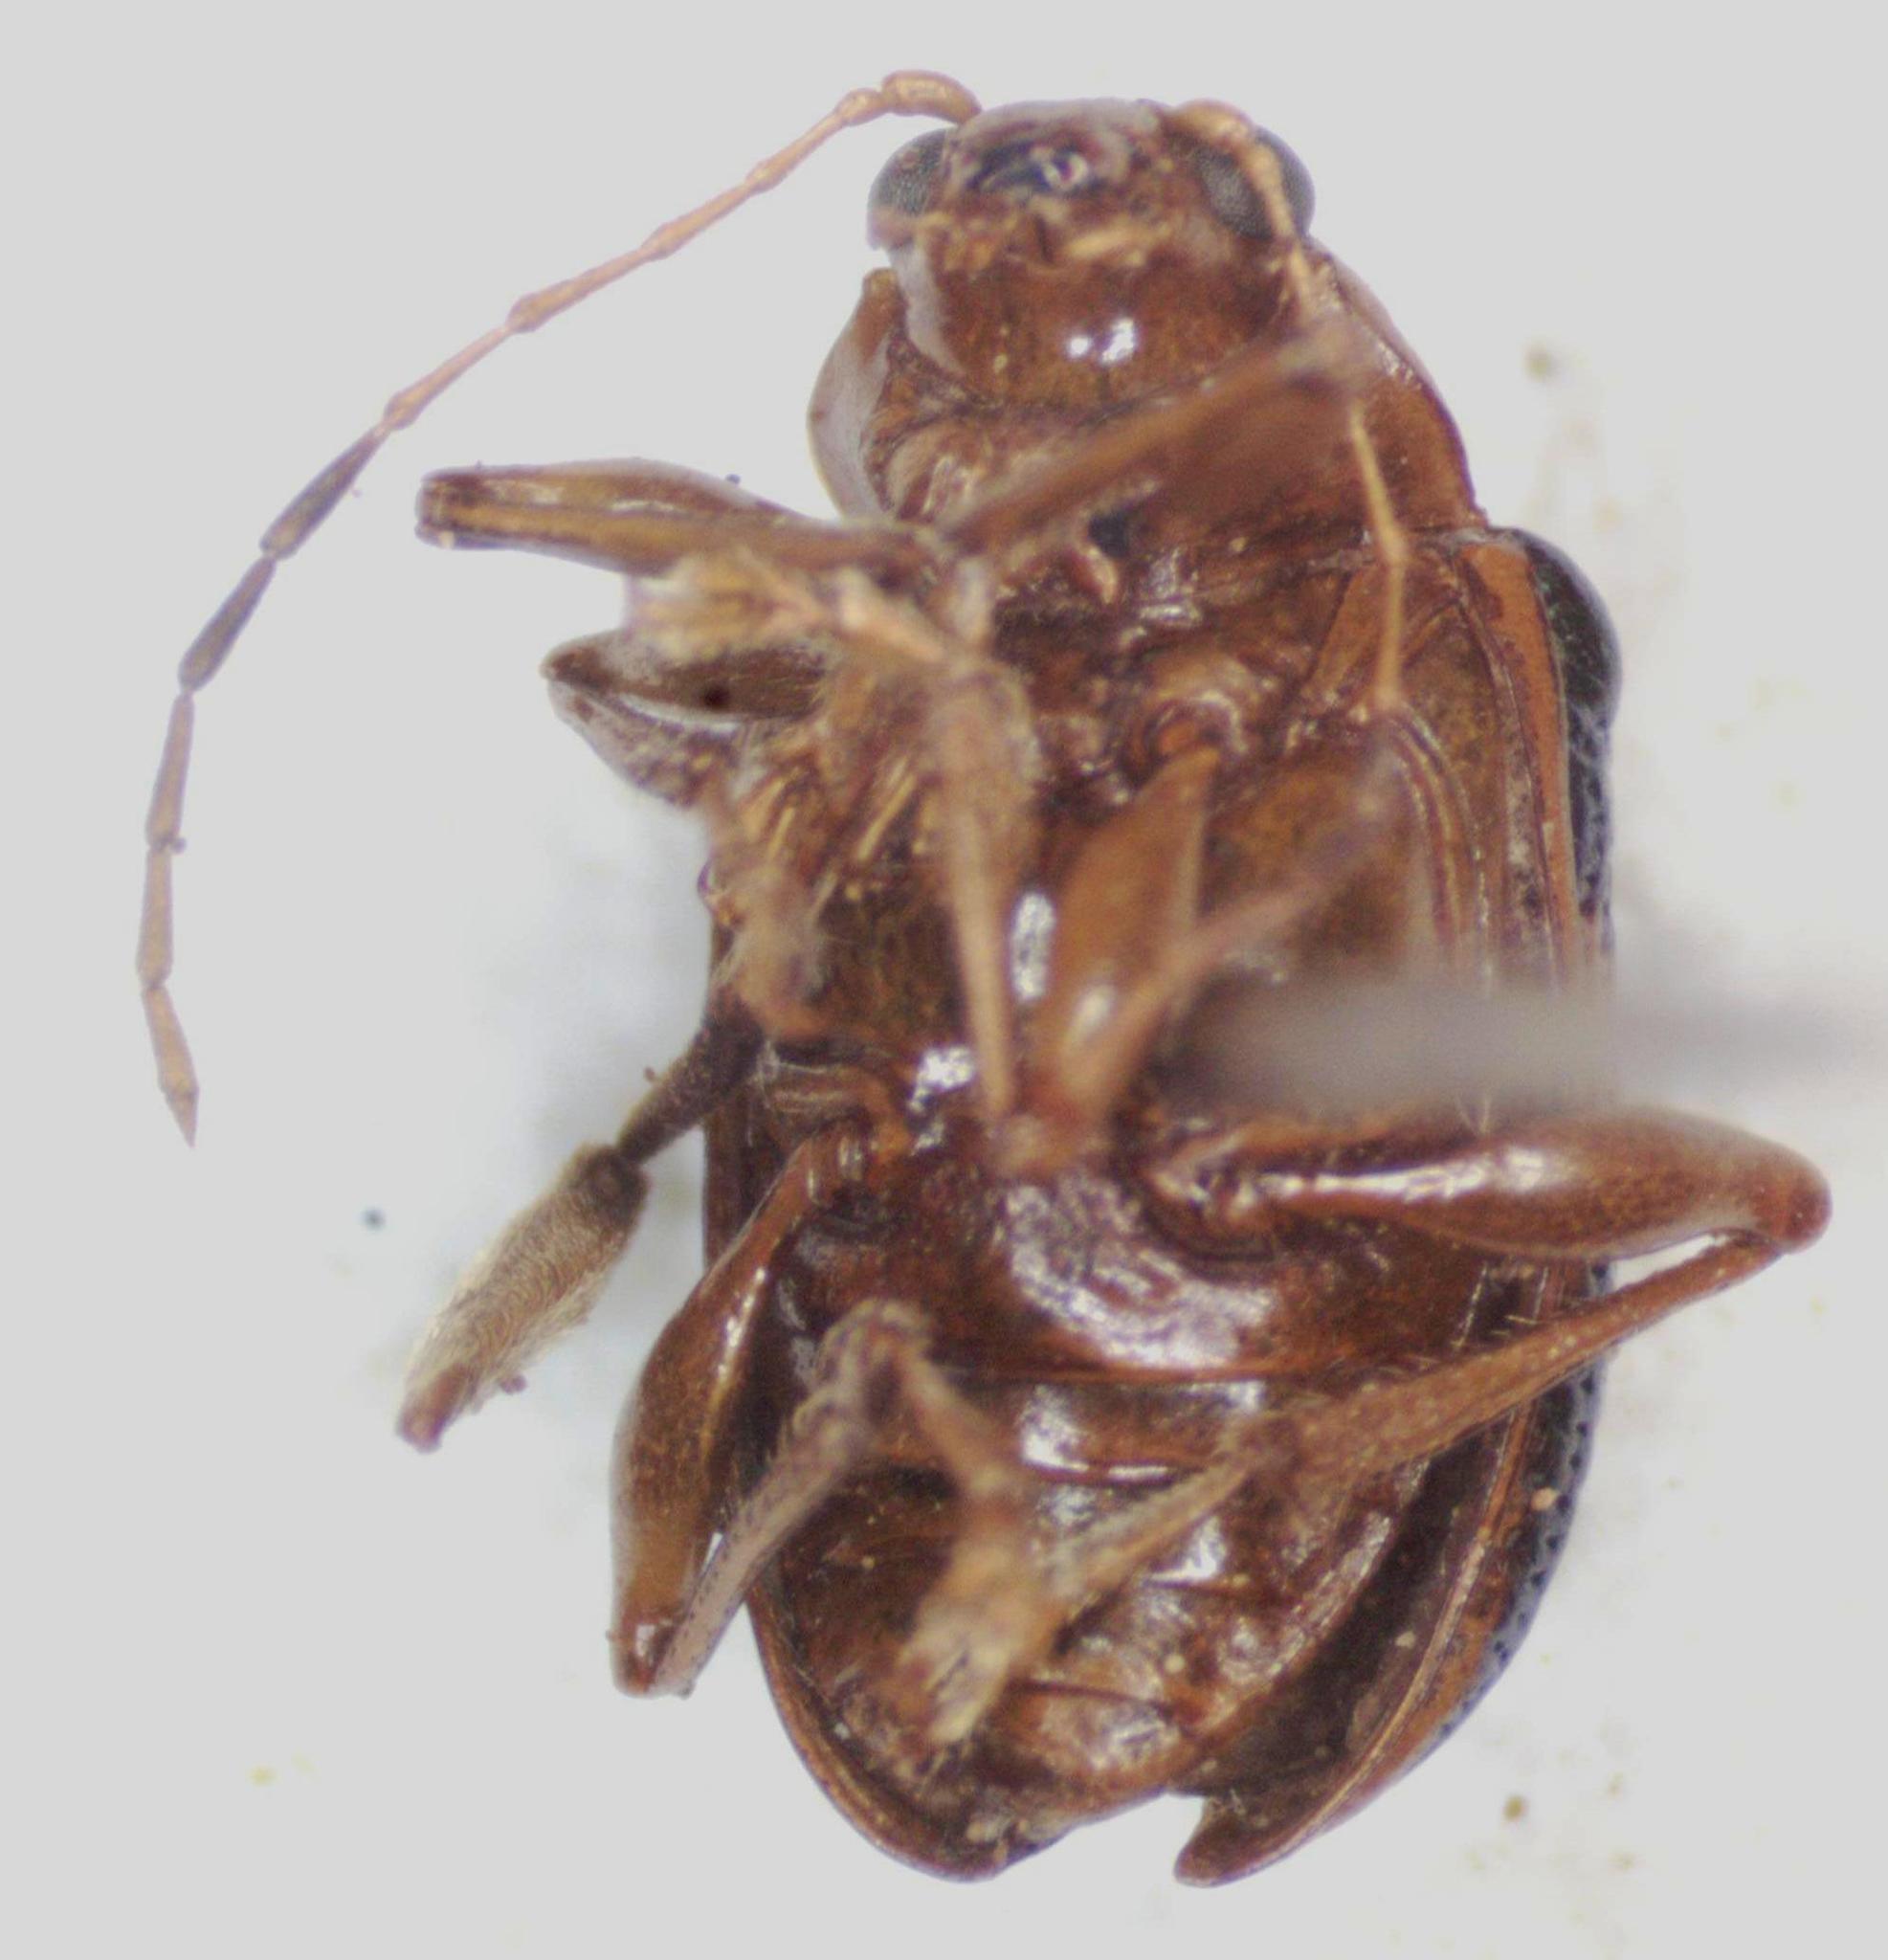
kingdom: Animalia
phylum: Arthropoda
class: Insecta
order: Coleoptera
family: Chrysomelidae
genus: Chalcophana
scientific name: Chalcophana cincta
